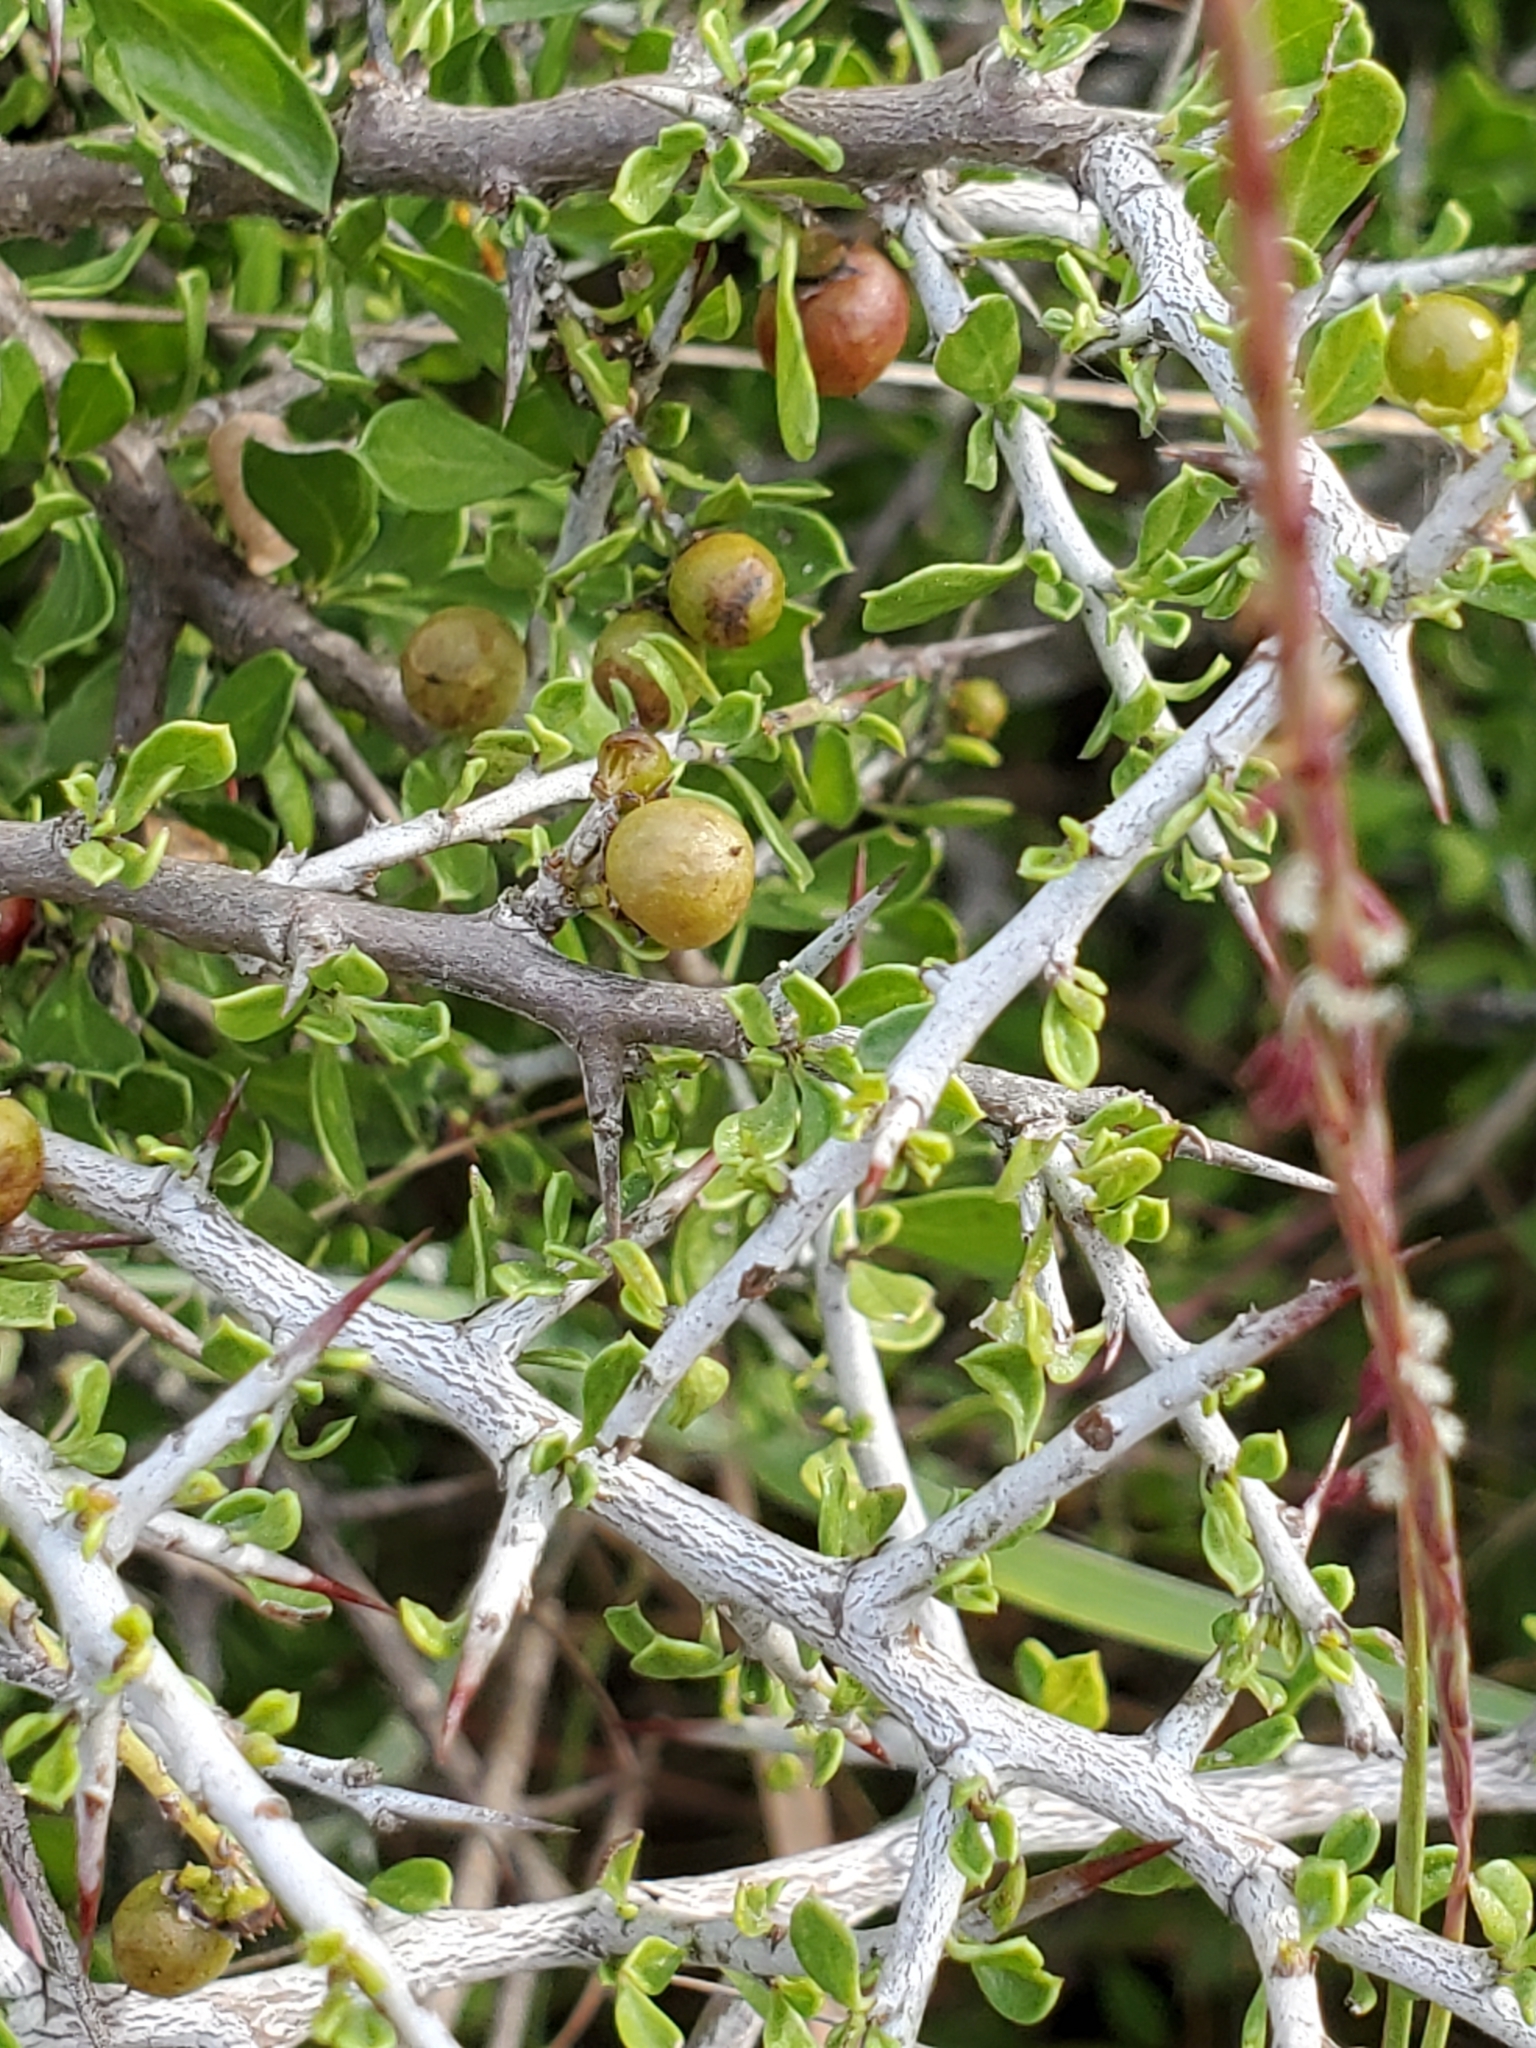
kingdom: Plantae
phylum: Tracheophyta
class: Magnoliopsida
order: Rosales
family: Rhamnaceae
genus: Condalia
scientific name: Condalia viridis
